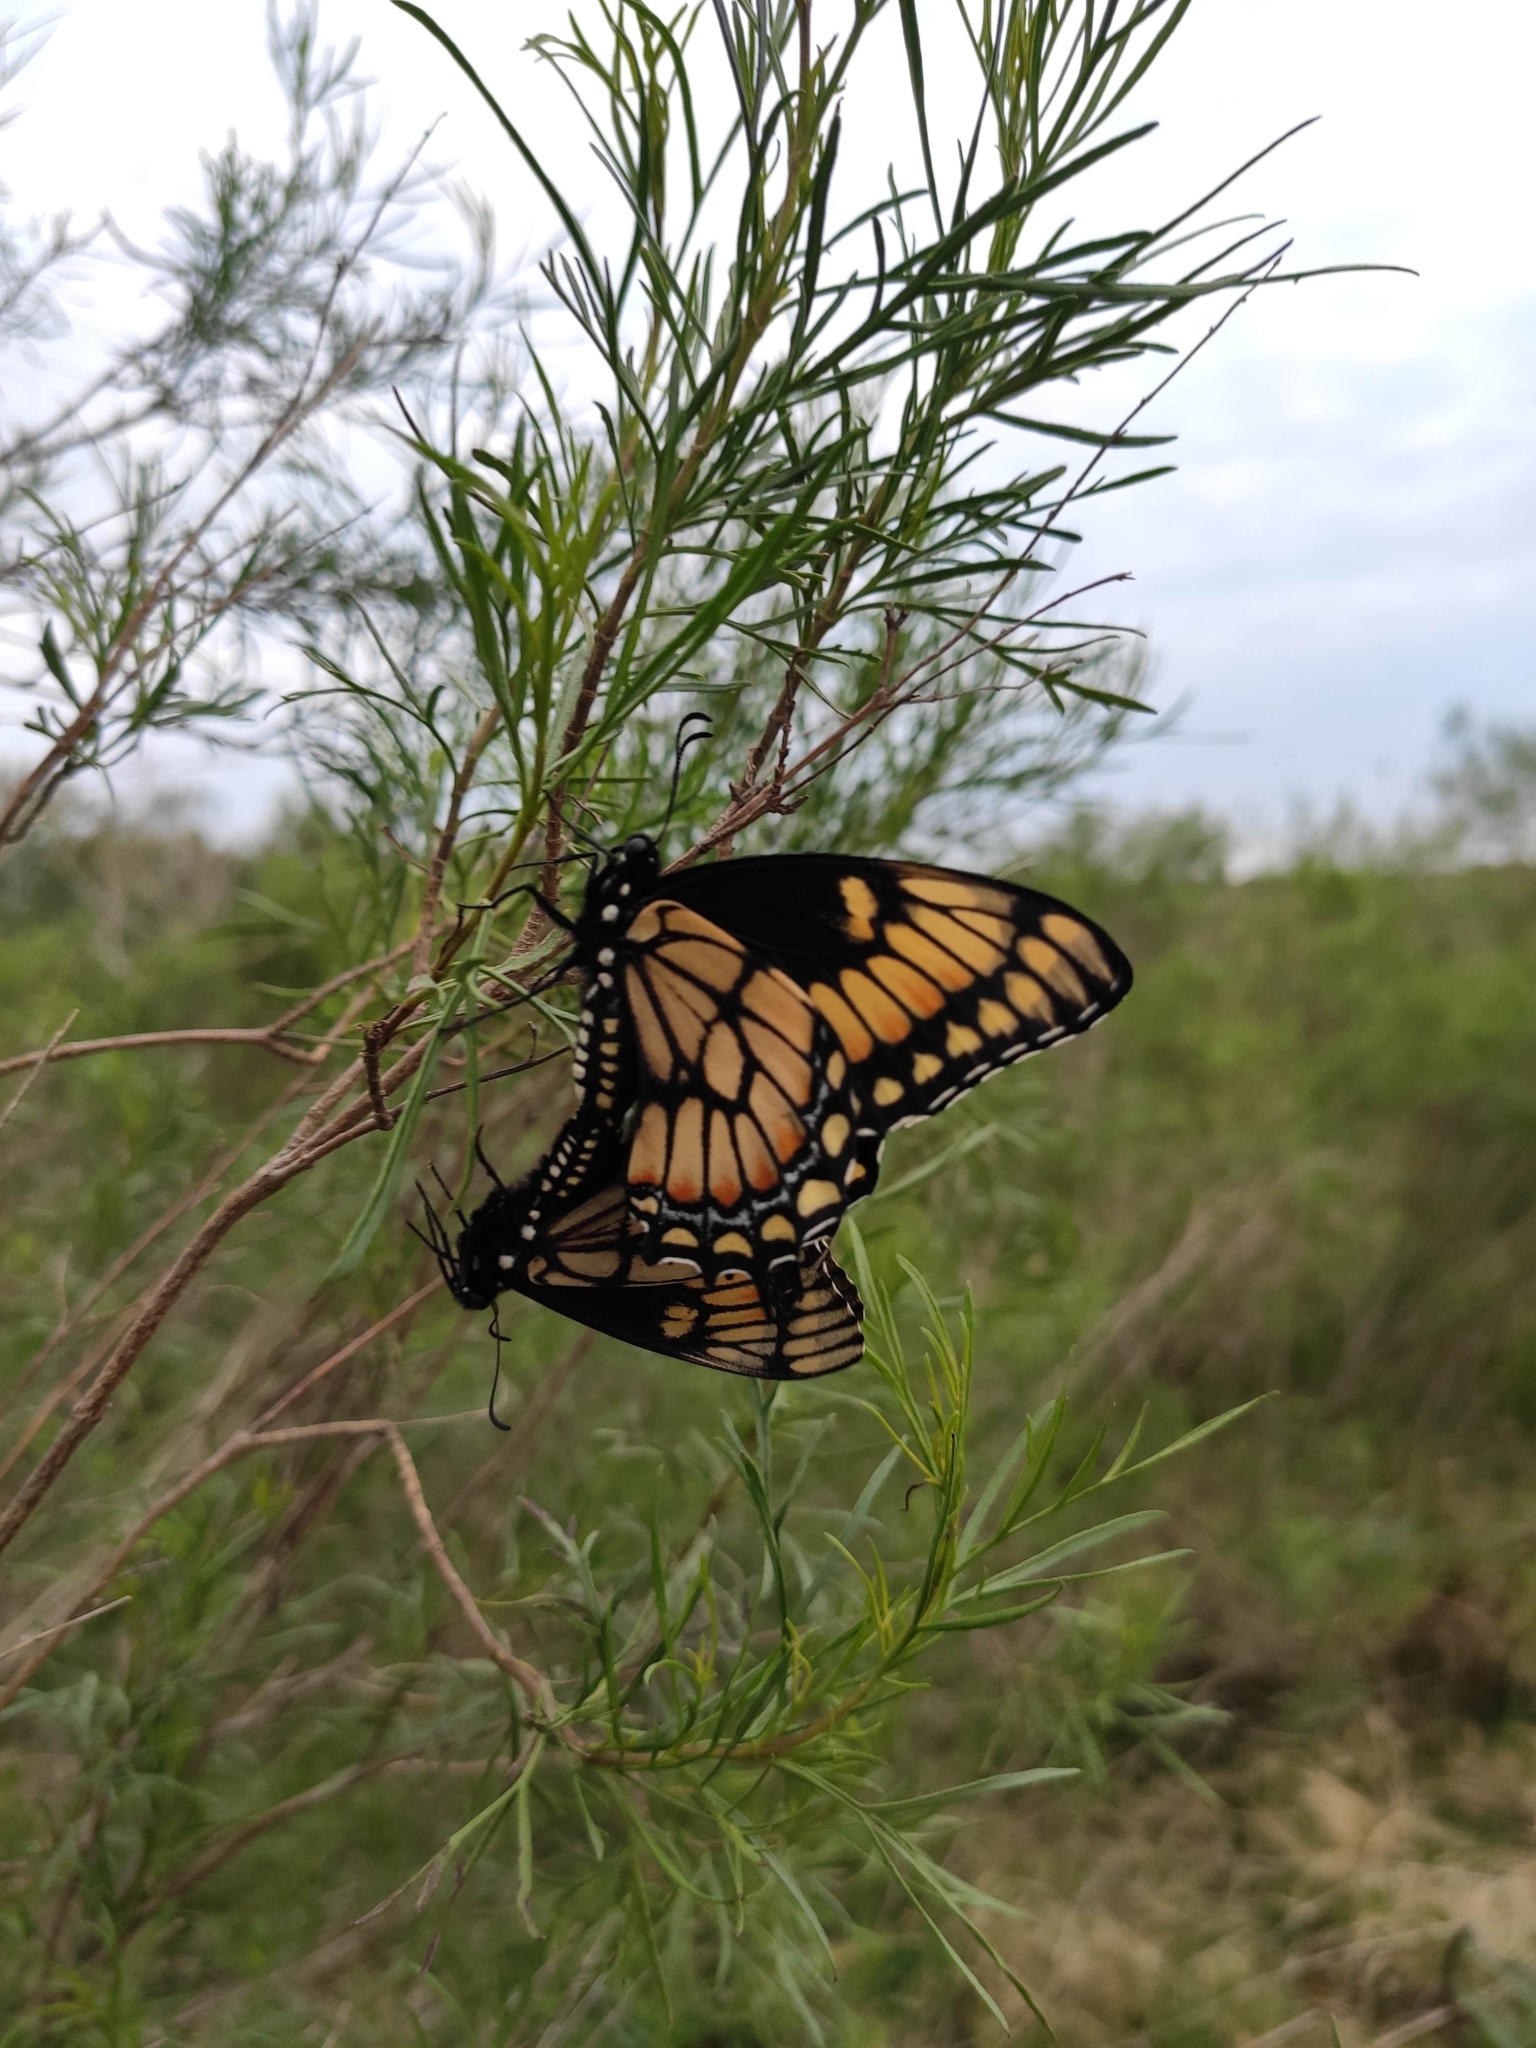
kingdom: Animalia
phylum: Arthropoda
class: Insecta
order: Lepidoptera
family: Papilionidae
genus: Papilio
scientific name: Papilio hellanichus
